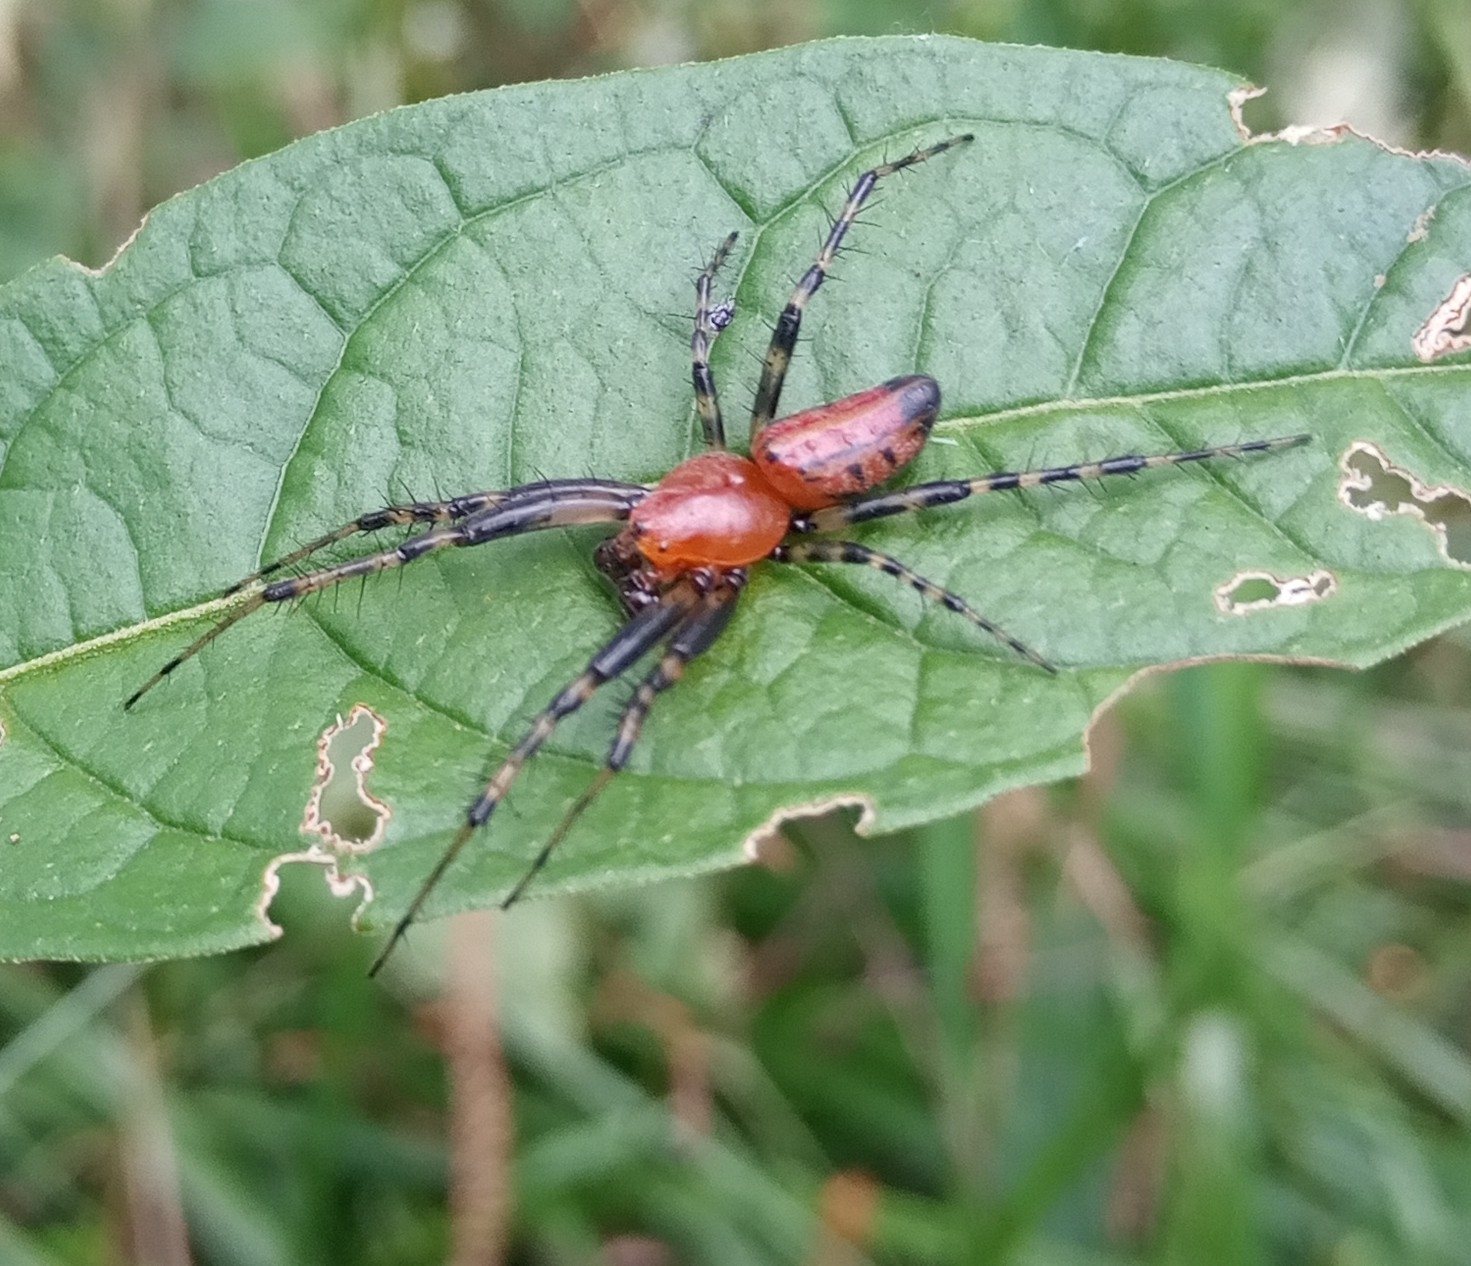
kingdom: Animalia
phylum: Arthropoda
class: Arachnida
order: Araneae
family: Araneidae
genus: Alpaida
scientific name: Alpaida grayi
